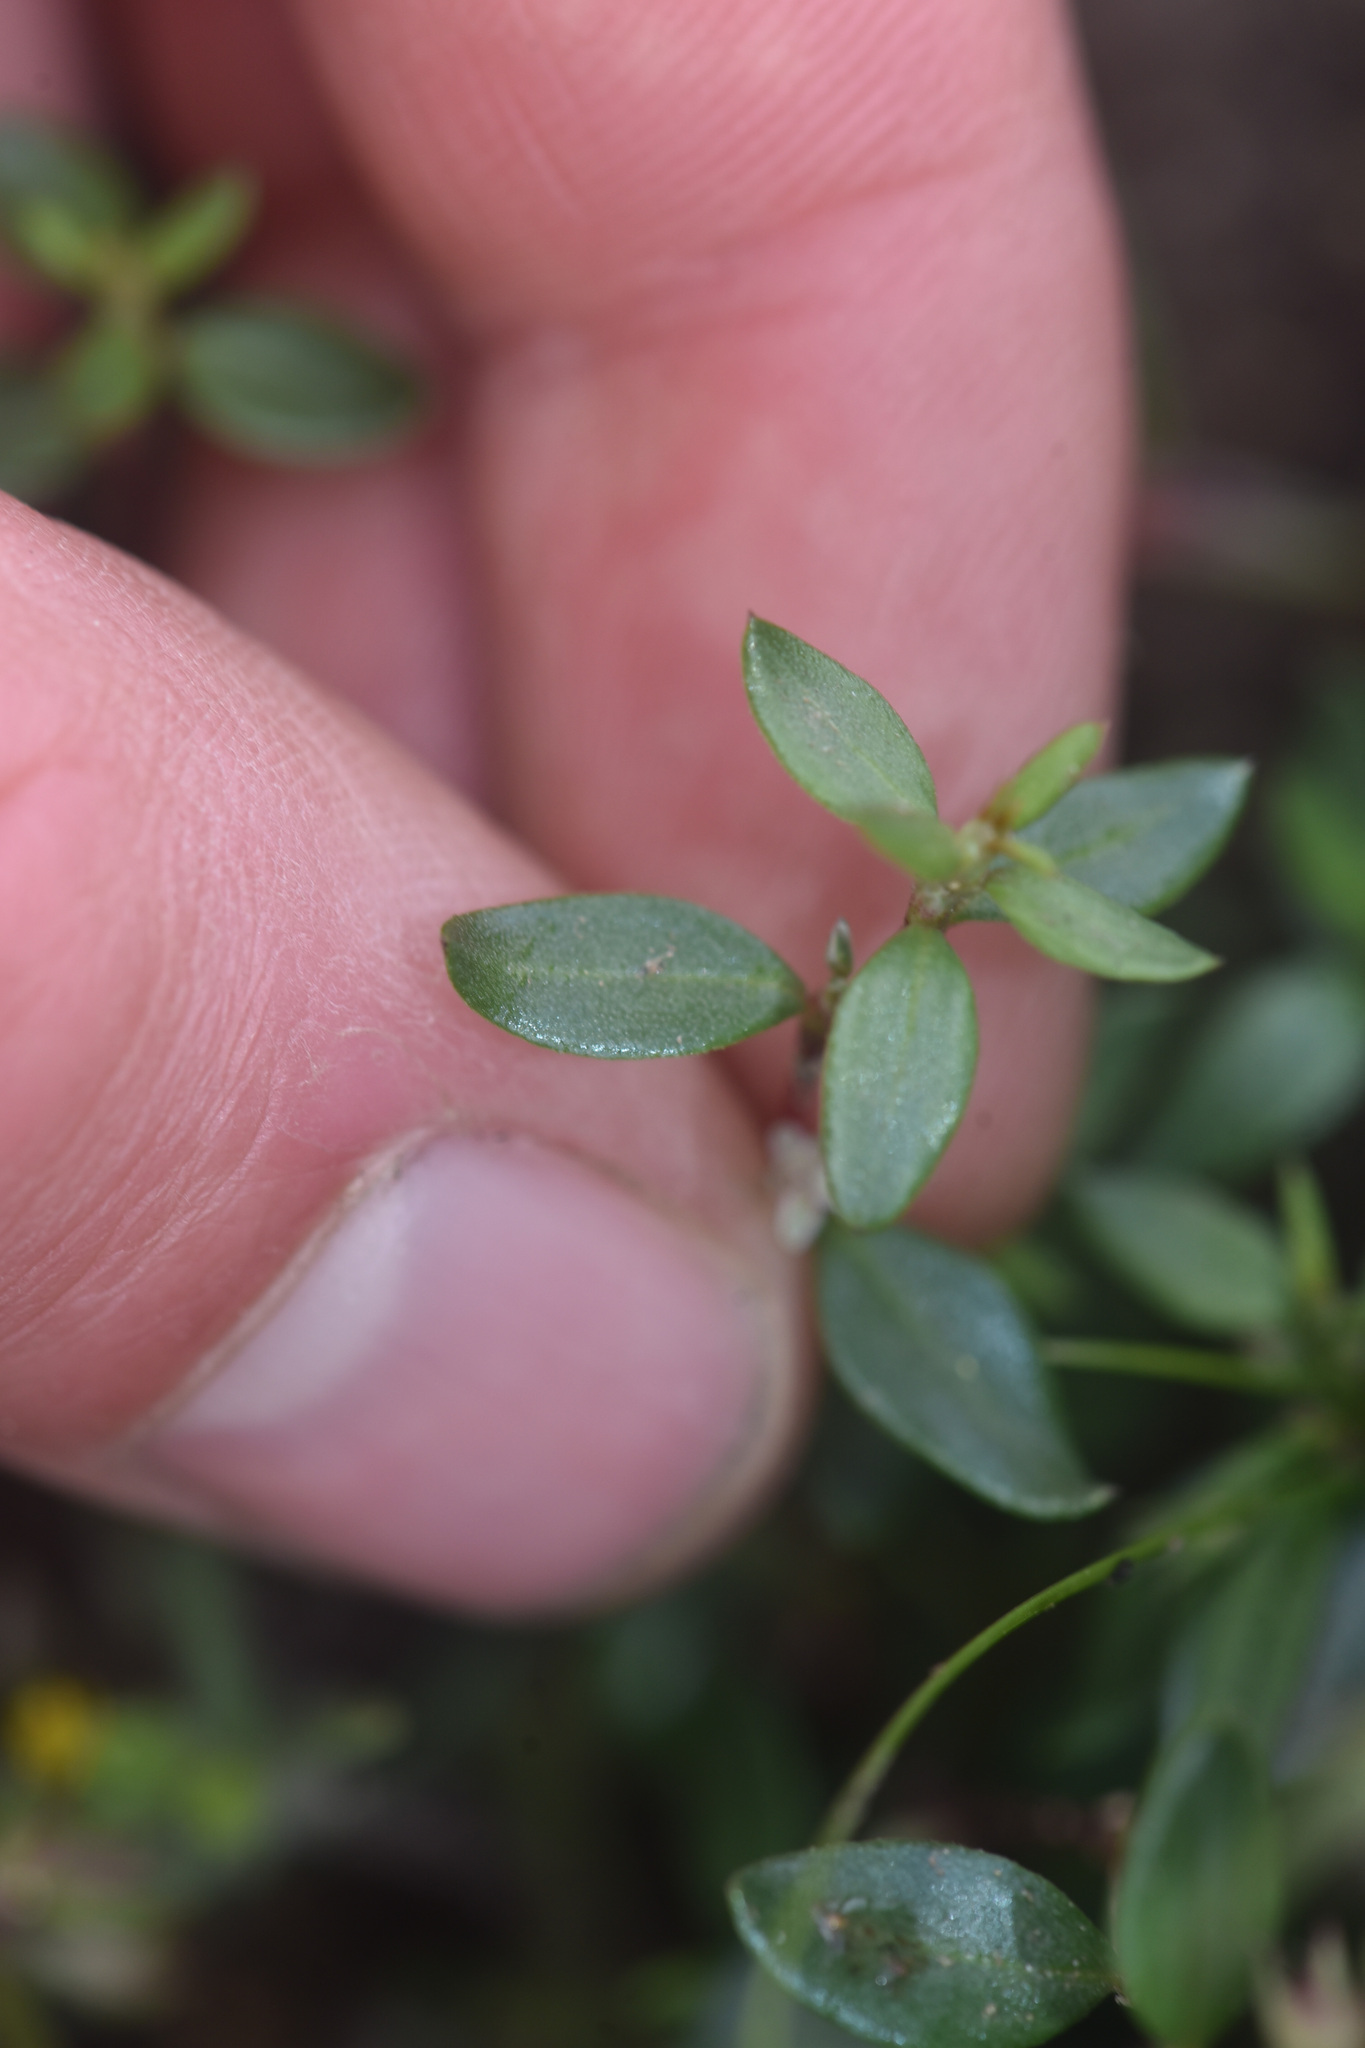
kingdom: Plantae
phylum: Tracheophyta
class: Magnoliopsida
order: Caryophyllales
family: Polygonaceae
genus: Polygonum
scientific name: Polygonum minimum
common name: Broad-leaved knotweed
